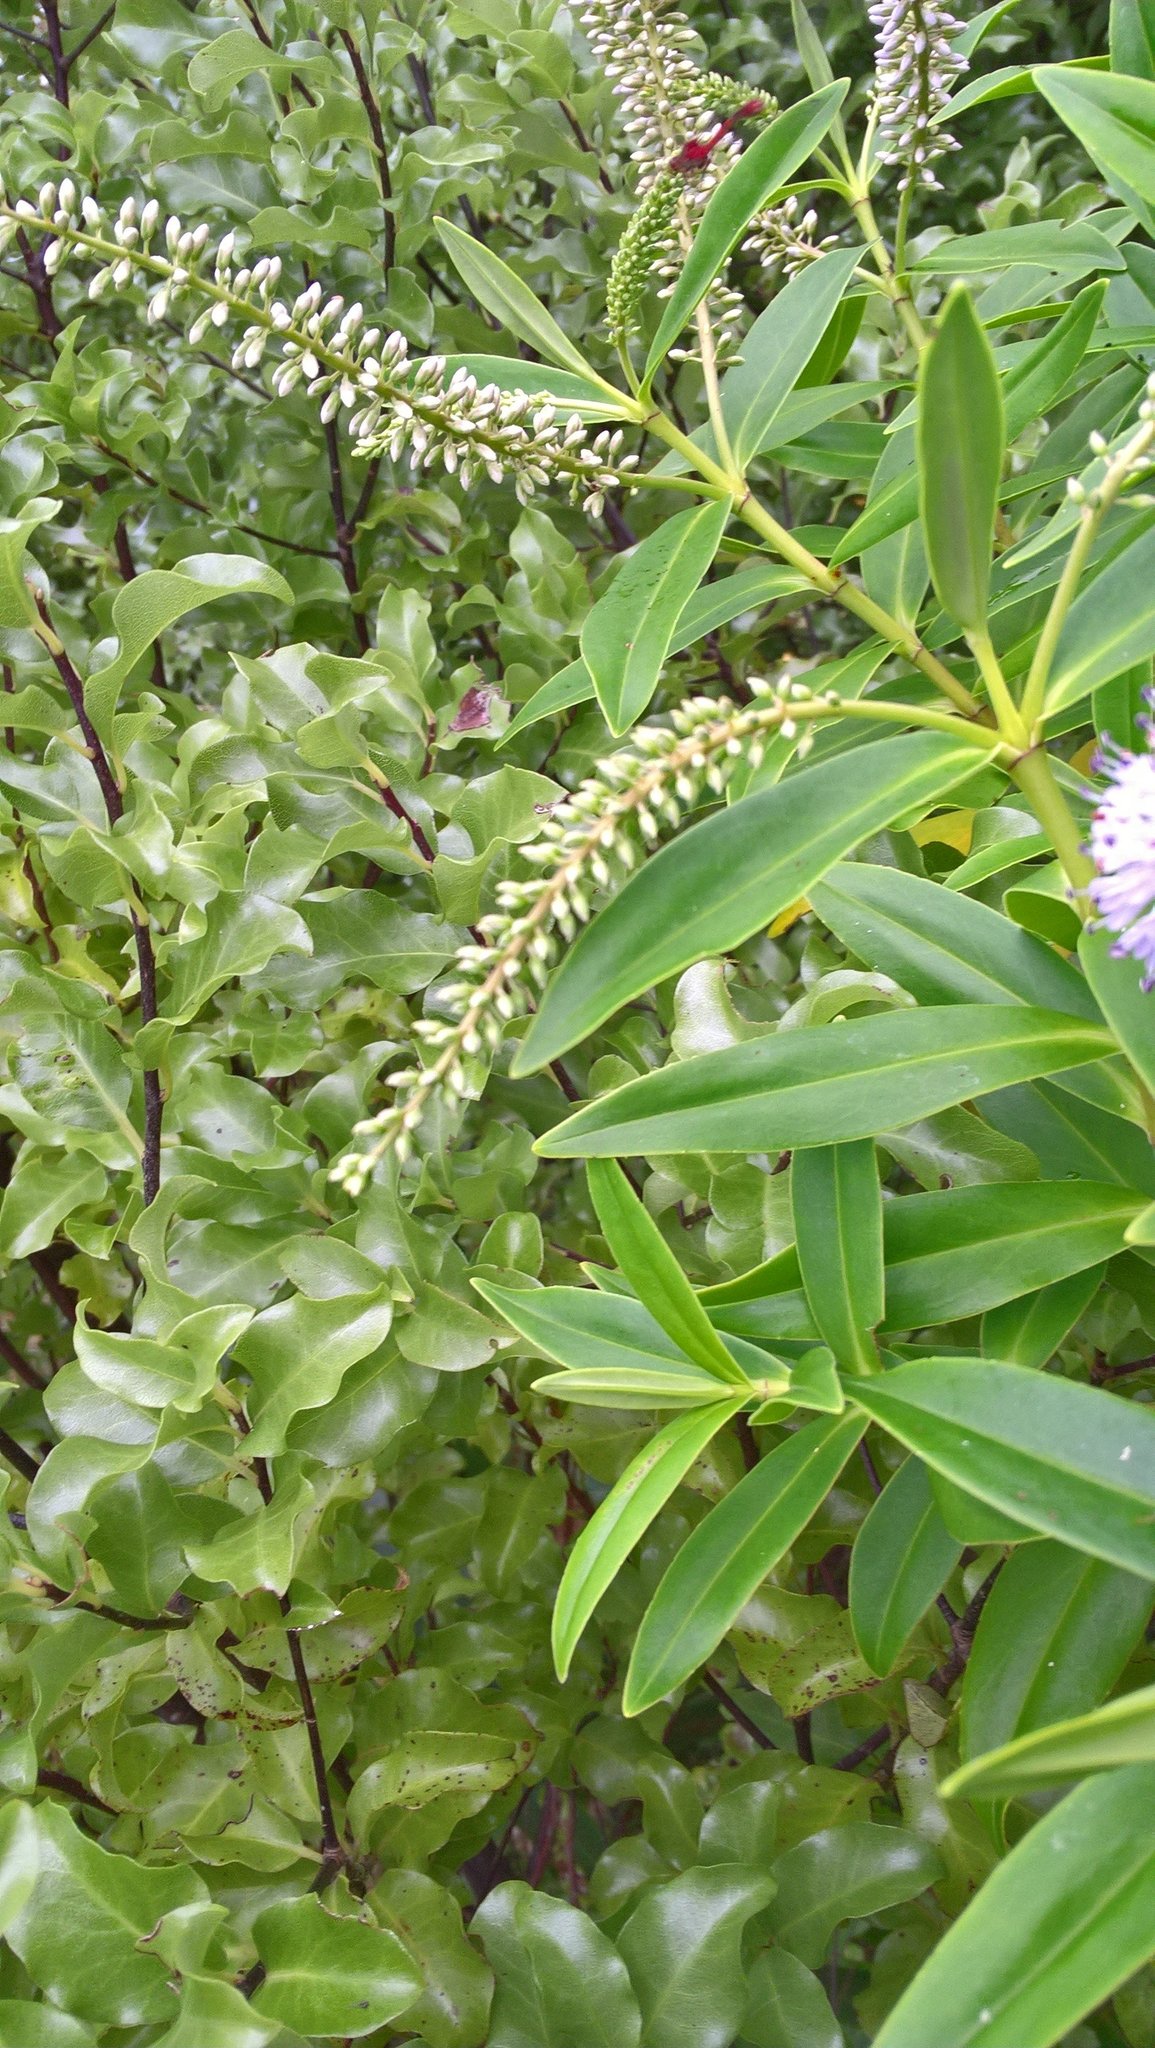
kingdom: Animalia
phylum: Arthropoda
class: Insecta
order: Odonata
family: Coenagrionidae
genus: Xanthocnemis
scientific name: Xanthocnemis zealandica
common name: Common redcoat damselfly
